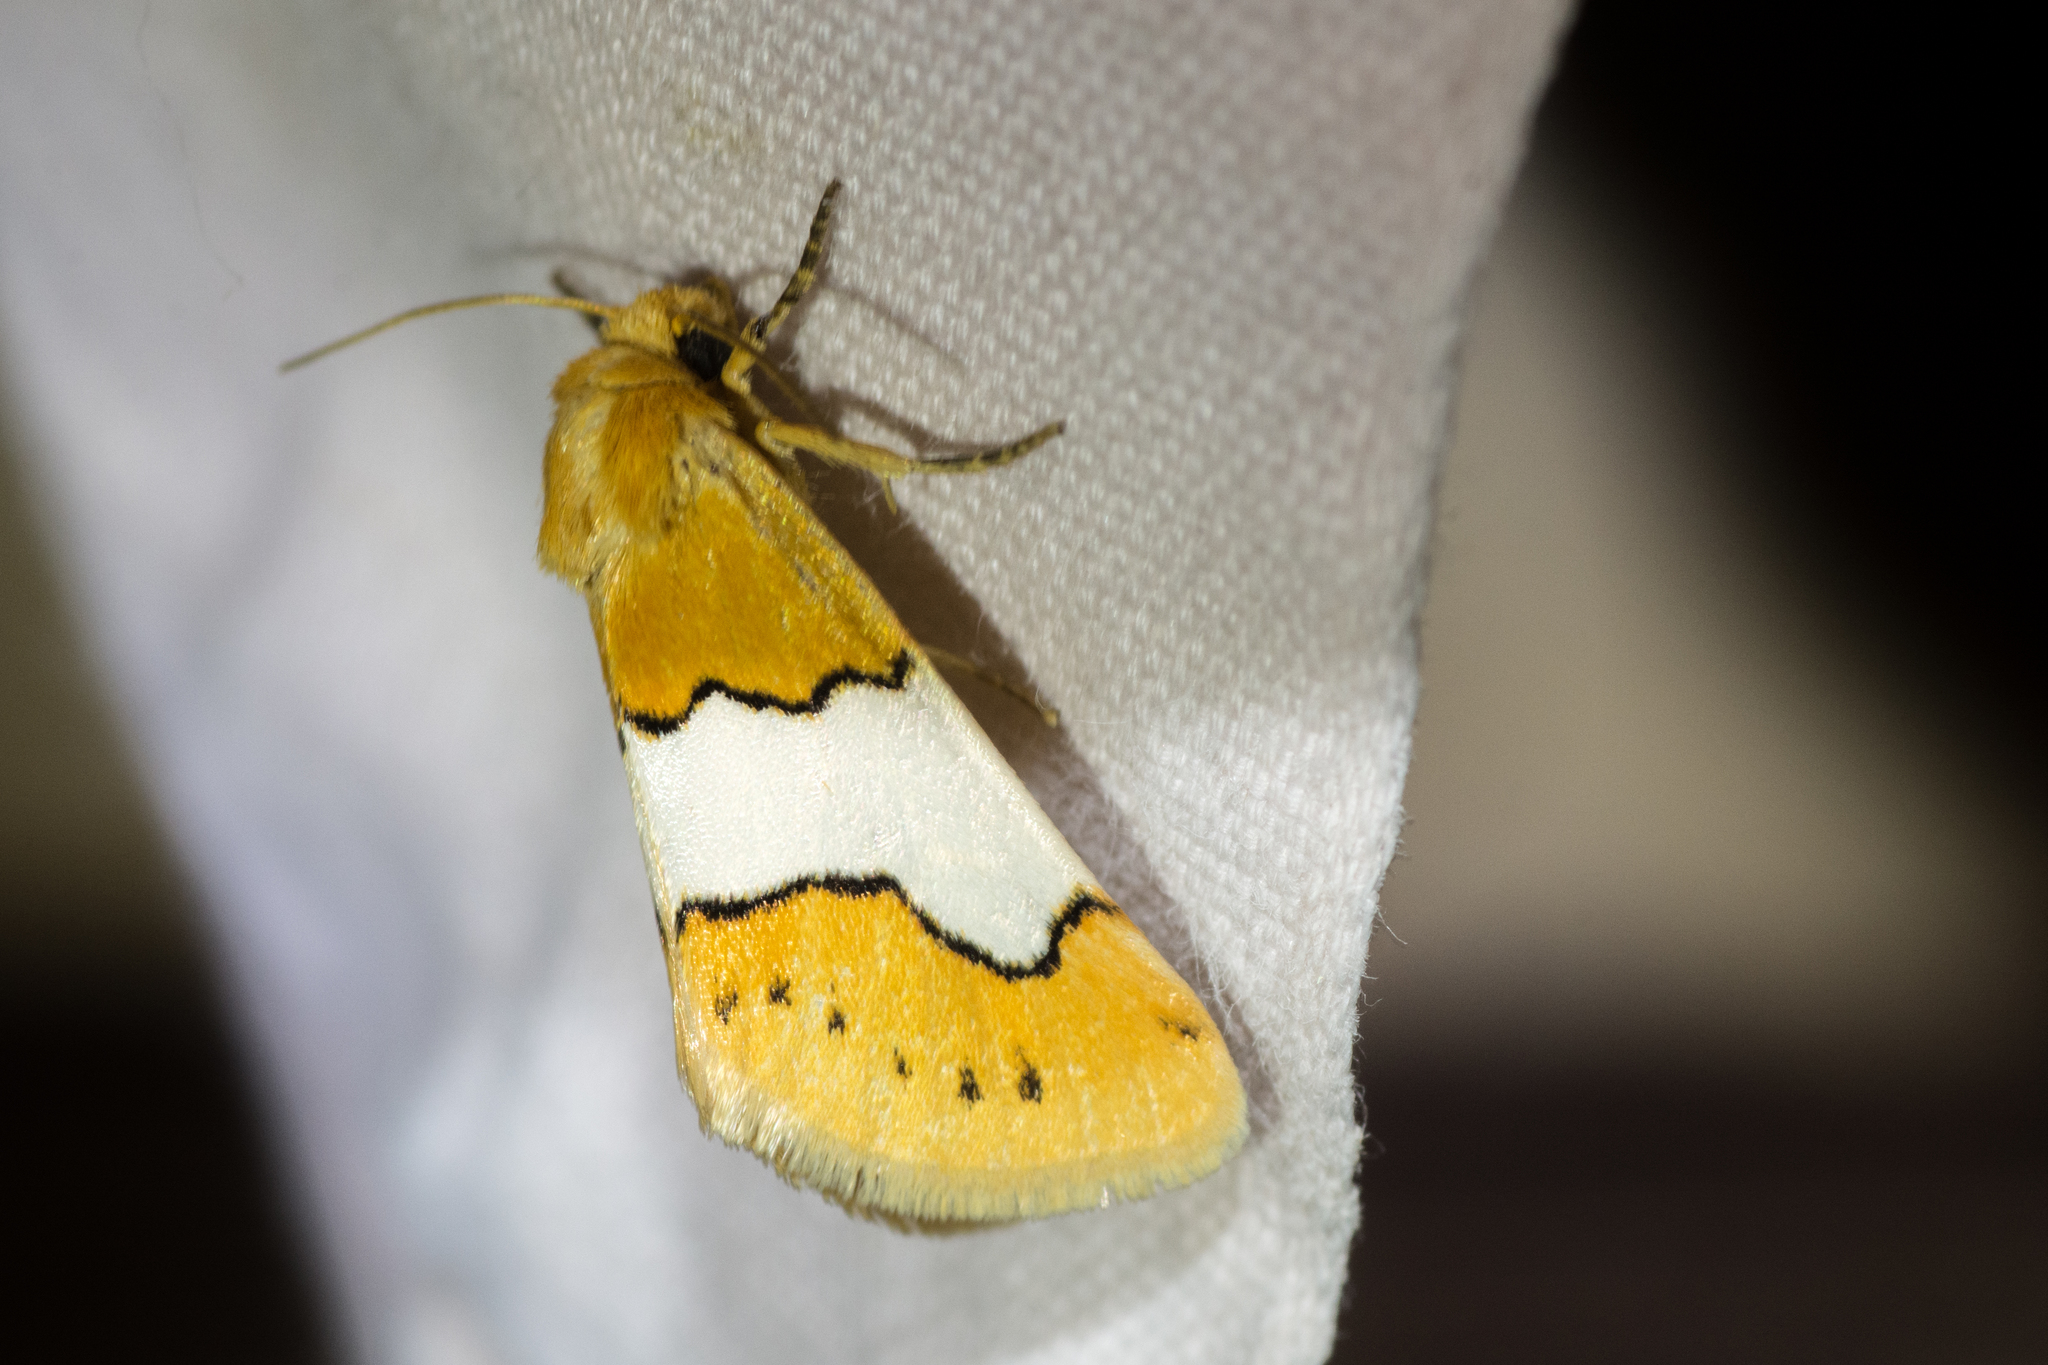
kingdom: Animalia
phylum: Arthropoda
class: Insecta
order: Lepidoptera
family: Noctuidae
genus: Lineostriastiria
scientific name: Lineostriastiria hachita
